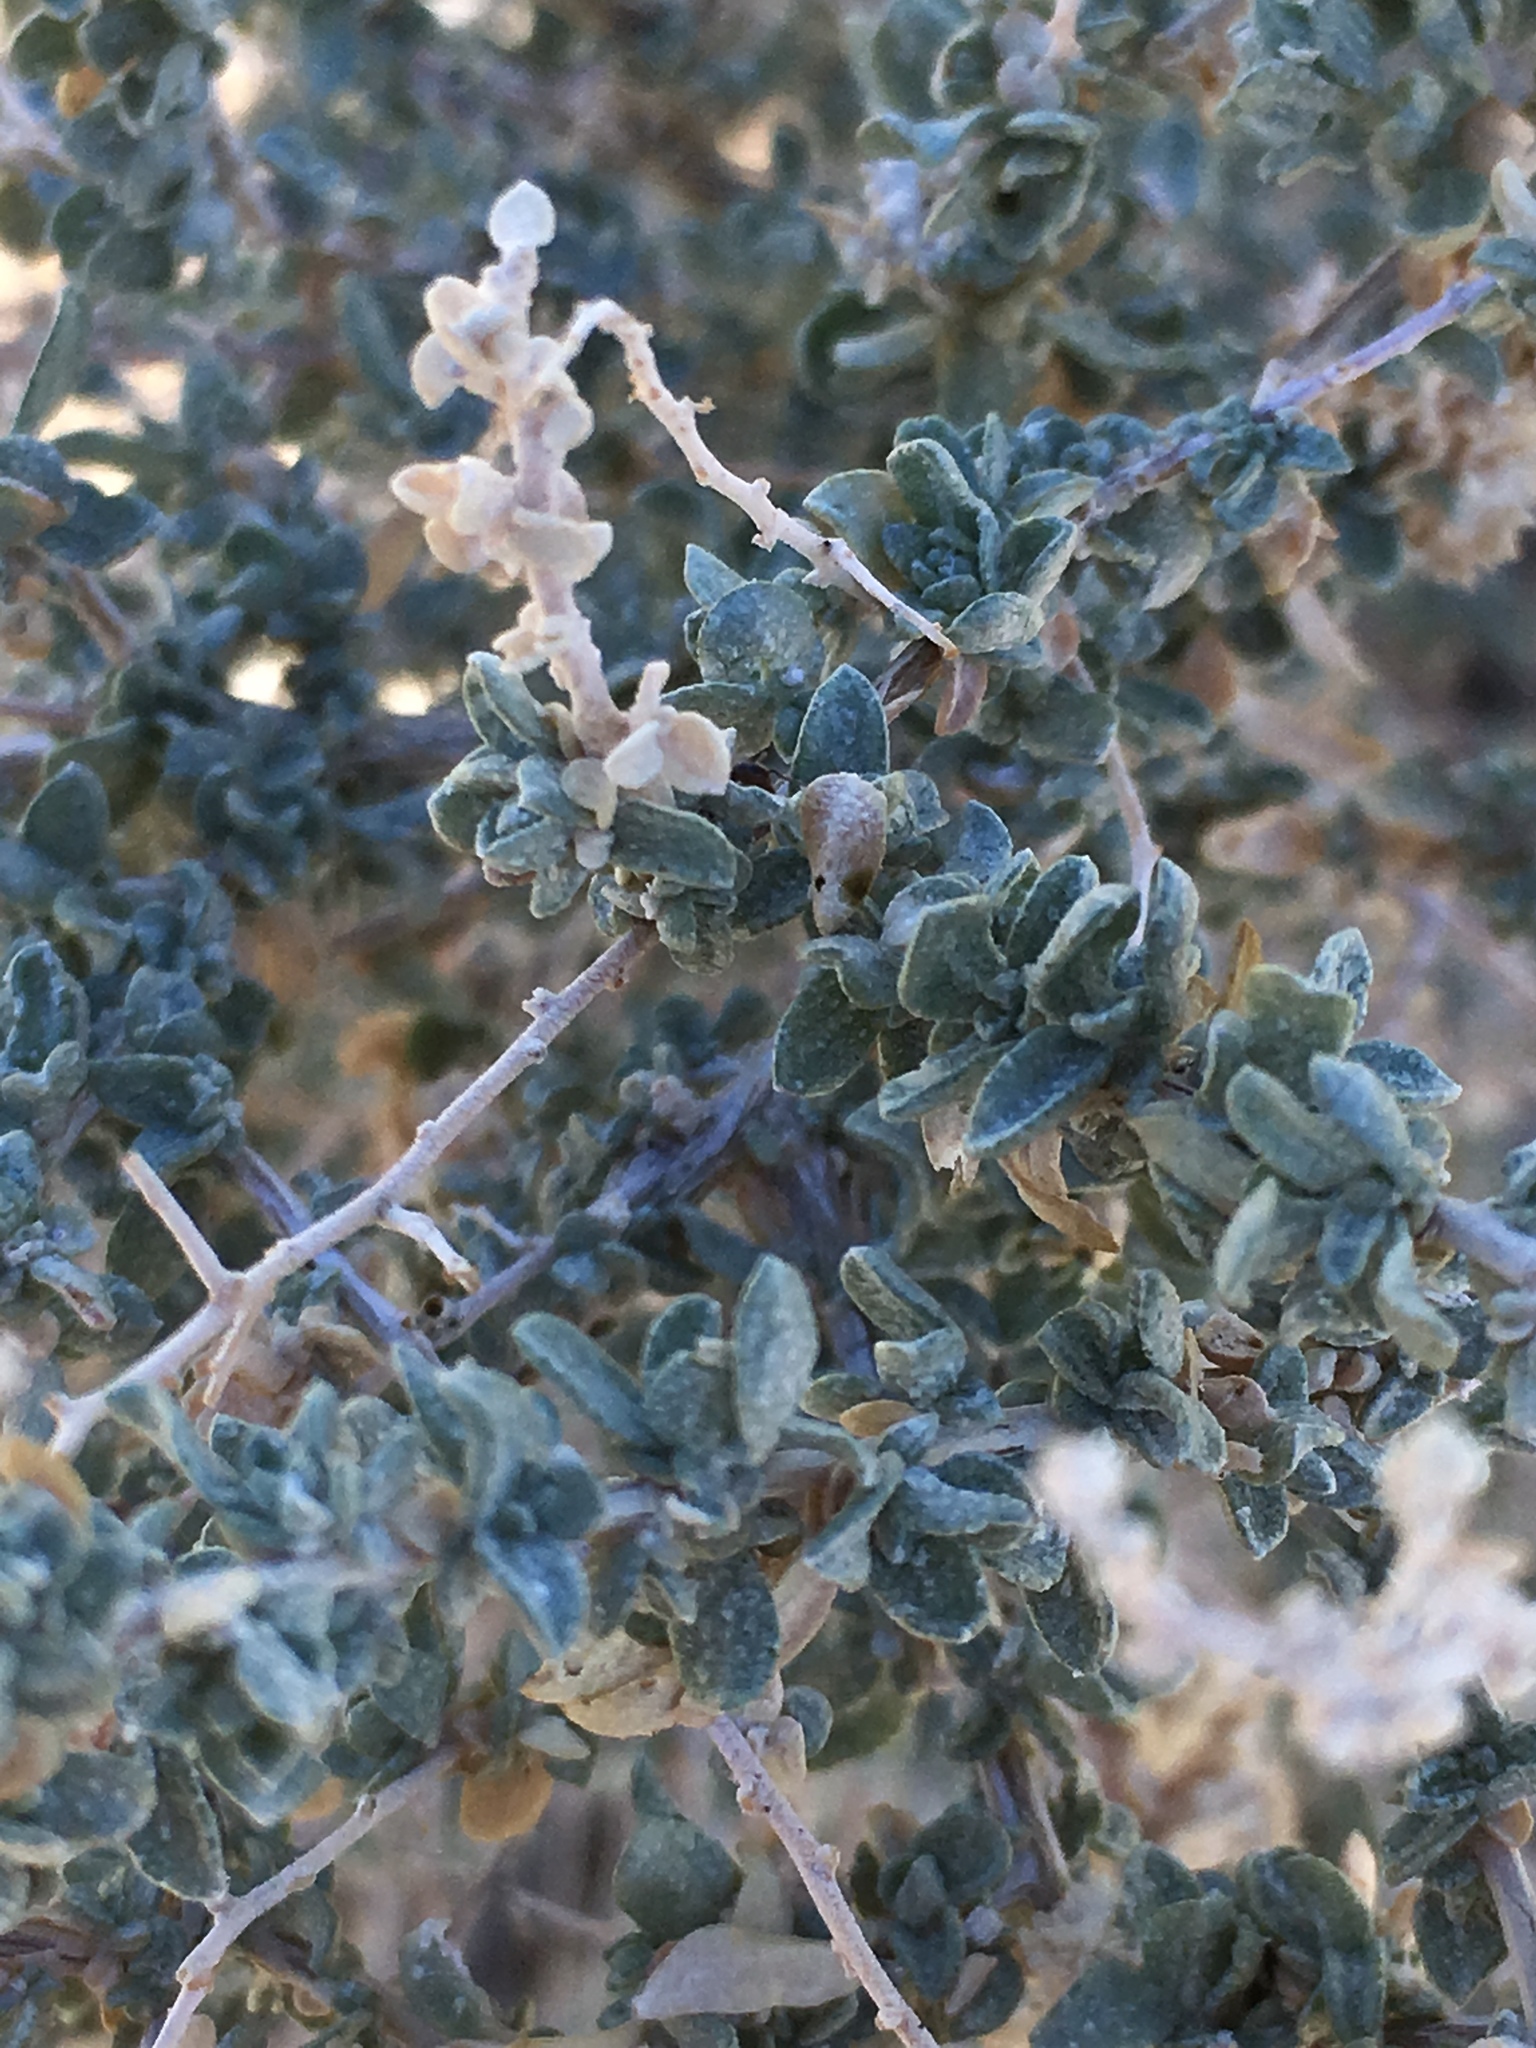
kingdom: Plantae
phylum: Tracheophyta
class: Magnoliopsida
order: Caryophyllales
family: Amaranthaceae
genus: Atriplex
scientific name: Atriplex polycarpa
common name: Desert saltbush
